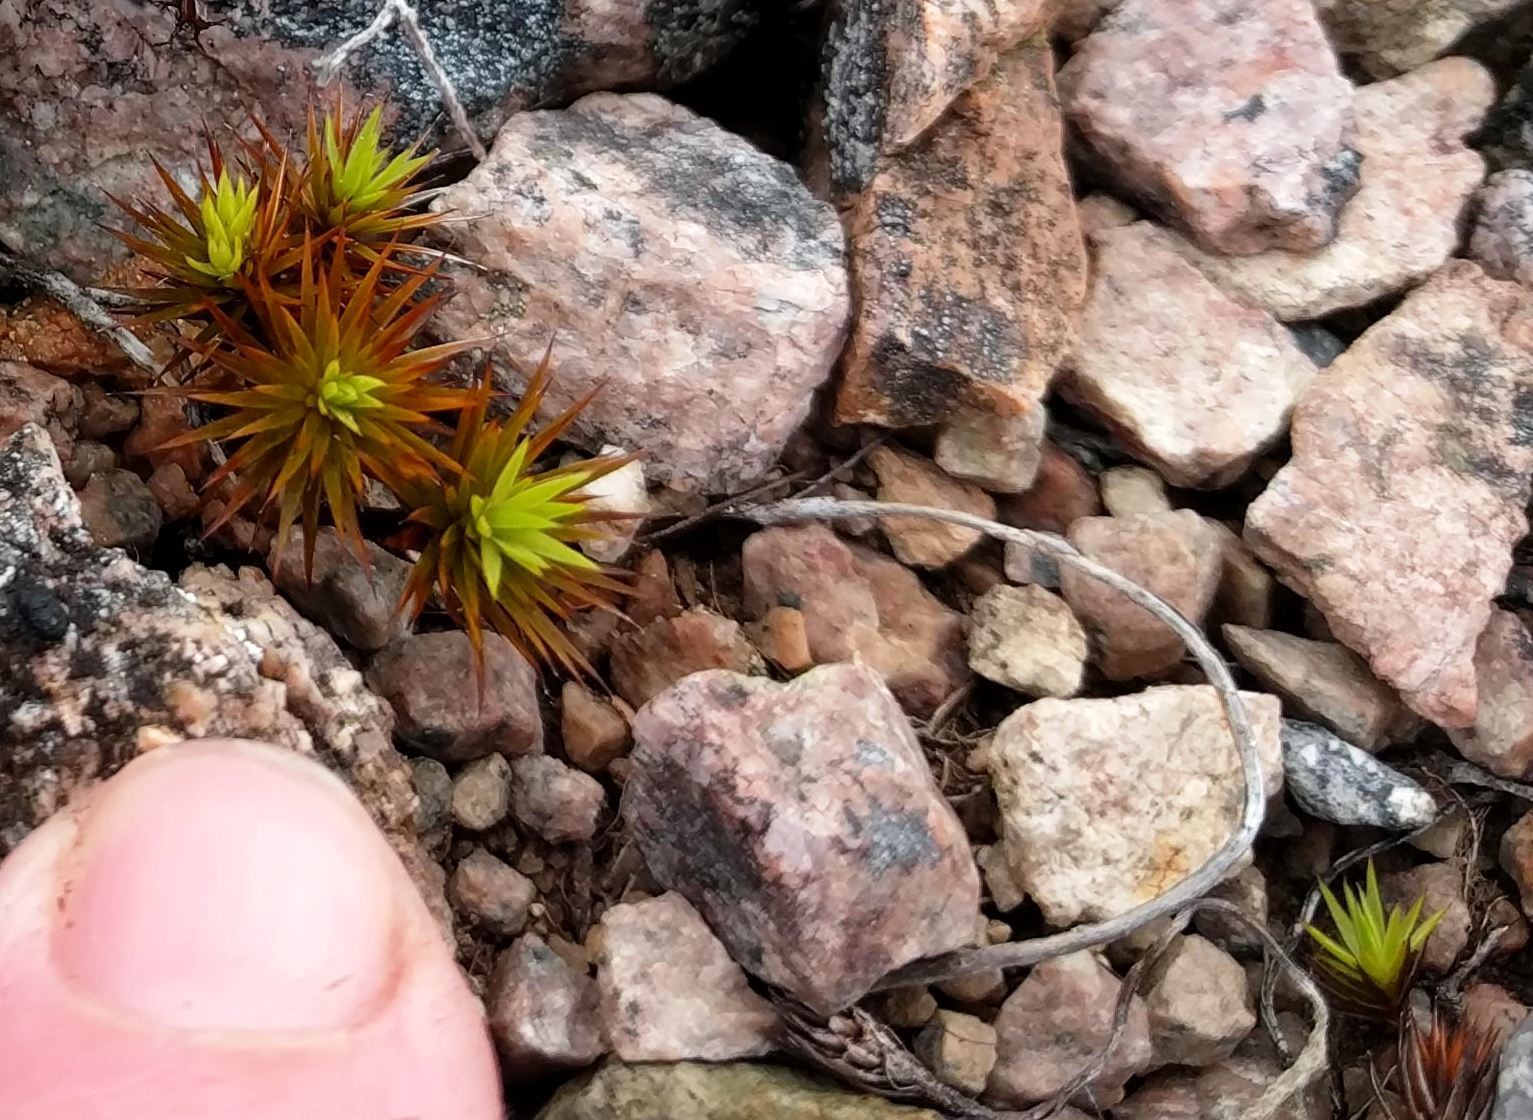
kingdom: Plantae
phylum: Bryophyta
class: Polytrichopsida
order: Polytrichales
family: Polytrichaceae
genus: Polytrichum
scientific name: Polytrichum juniperinum
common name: Juniper haircap moss
